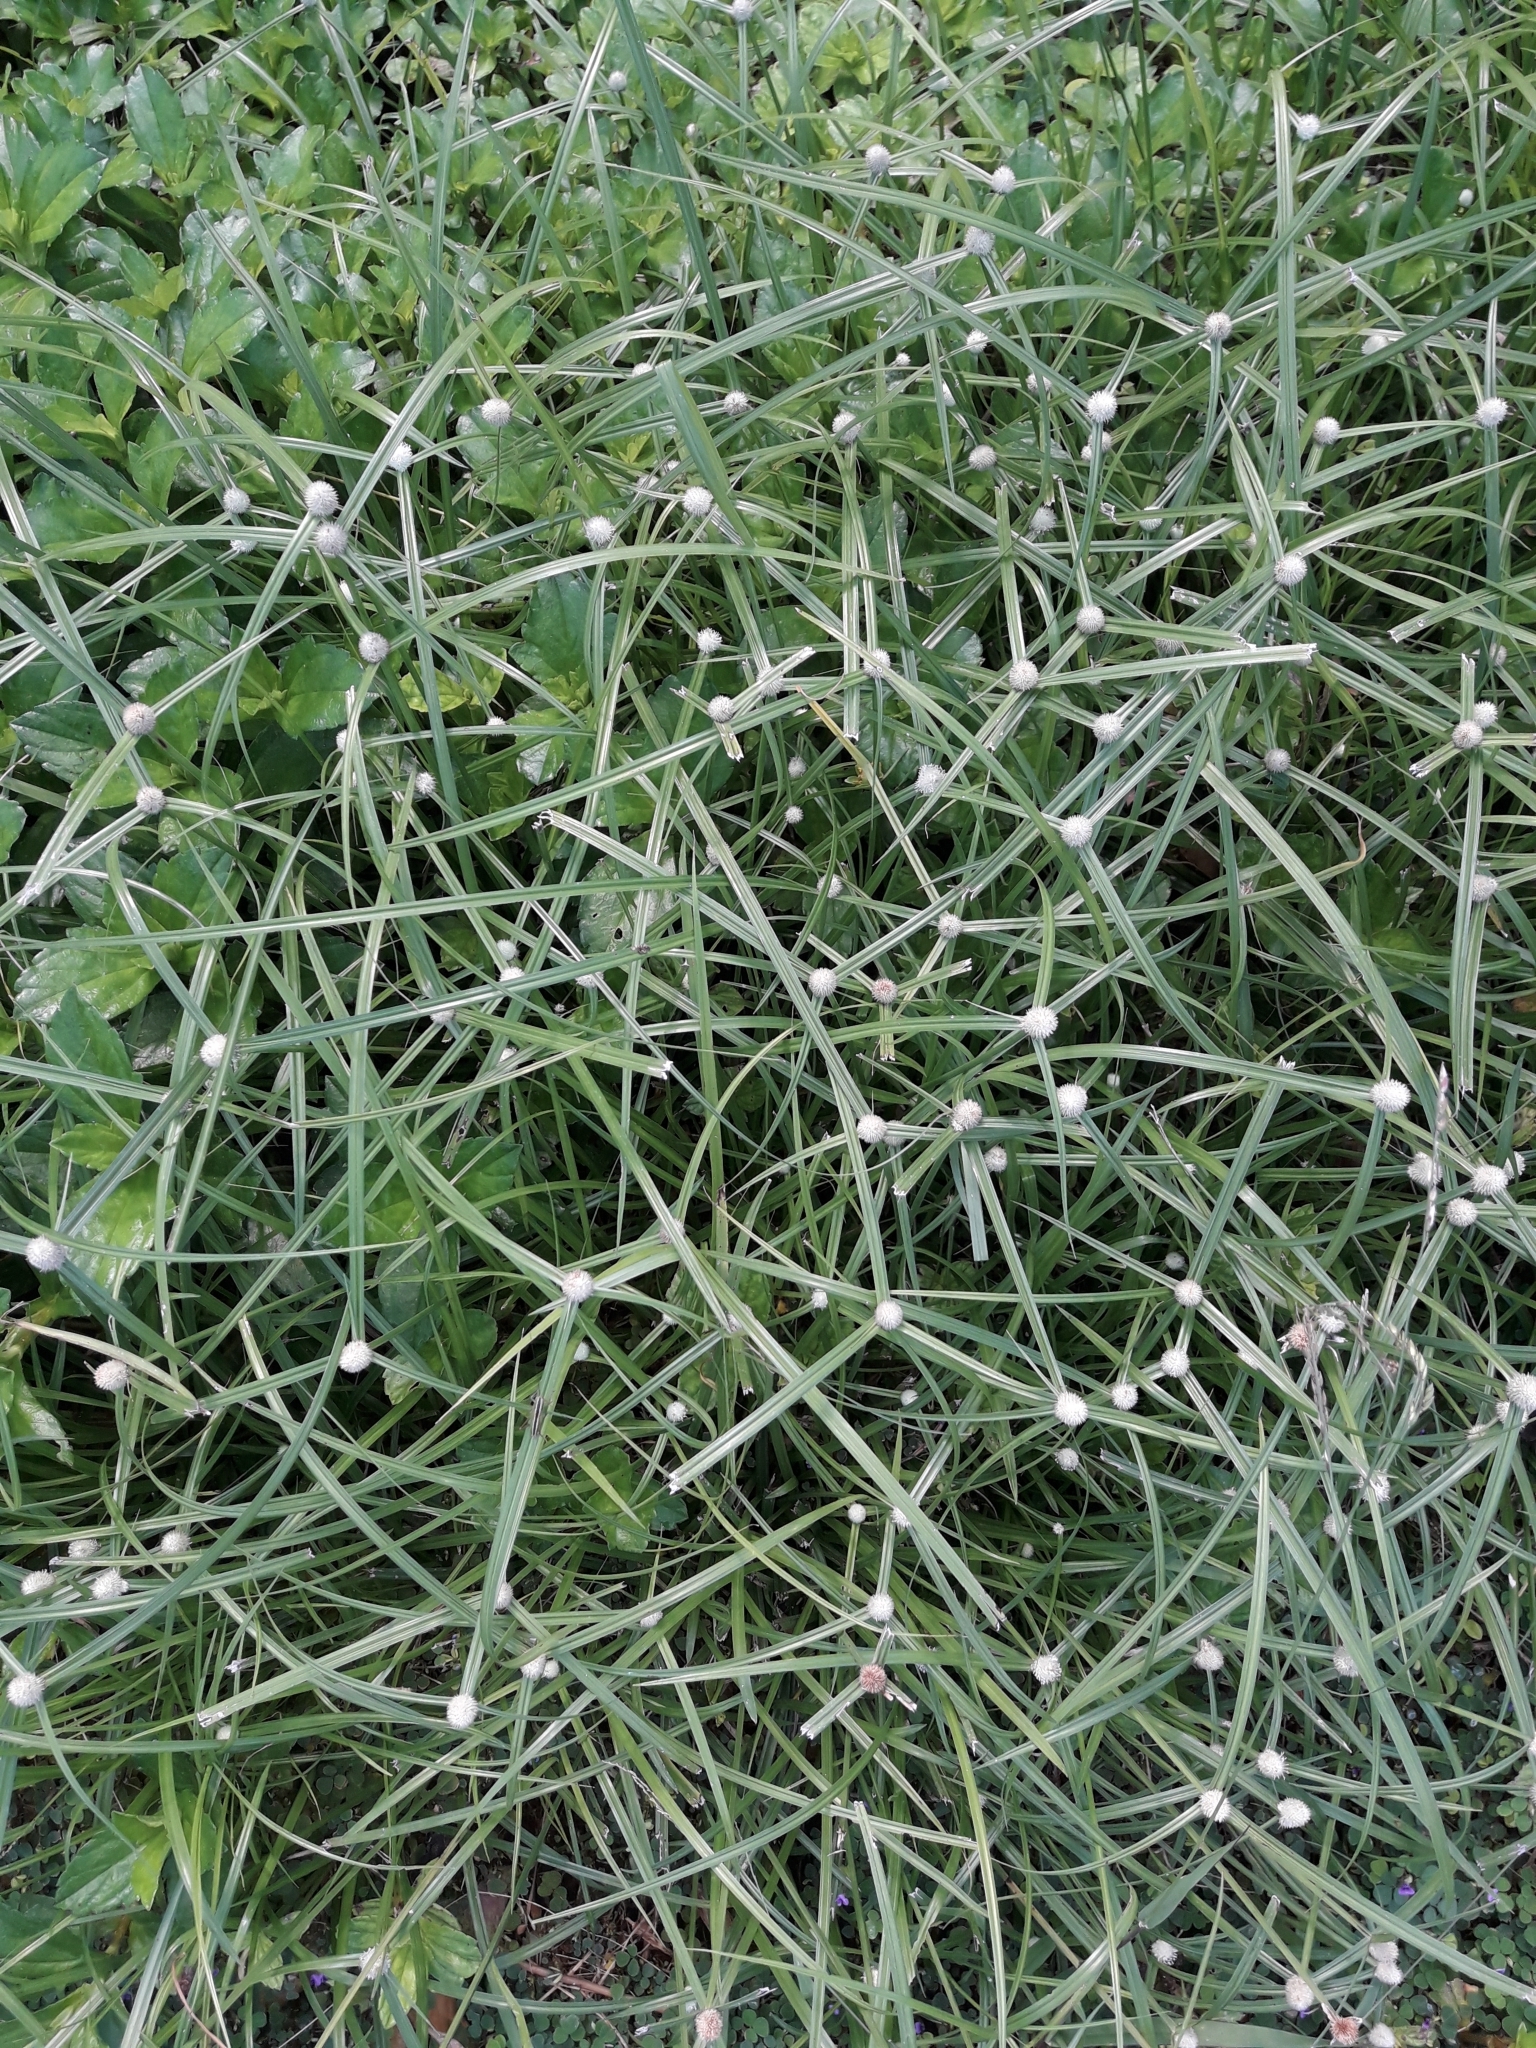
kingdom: Plantae
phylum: Tracheophyta
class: Liliopsida
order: Poales
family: Cyperaceae
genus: Cyperus
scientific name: Cyperus mindorensis
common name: Flatsedge
